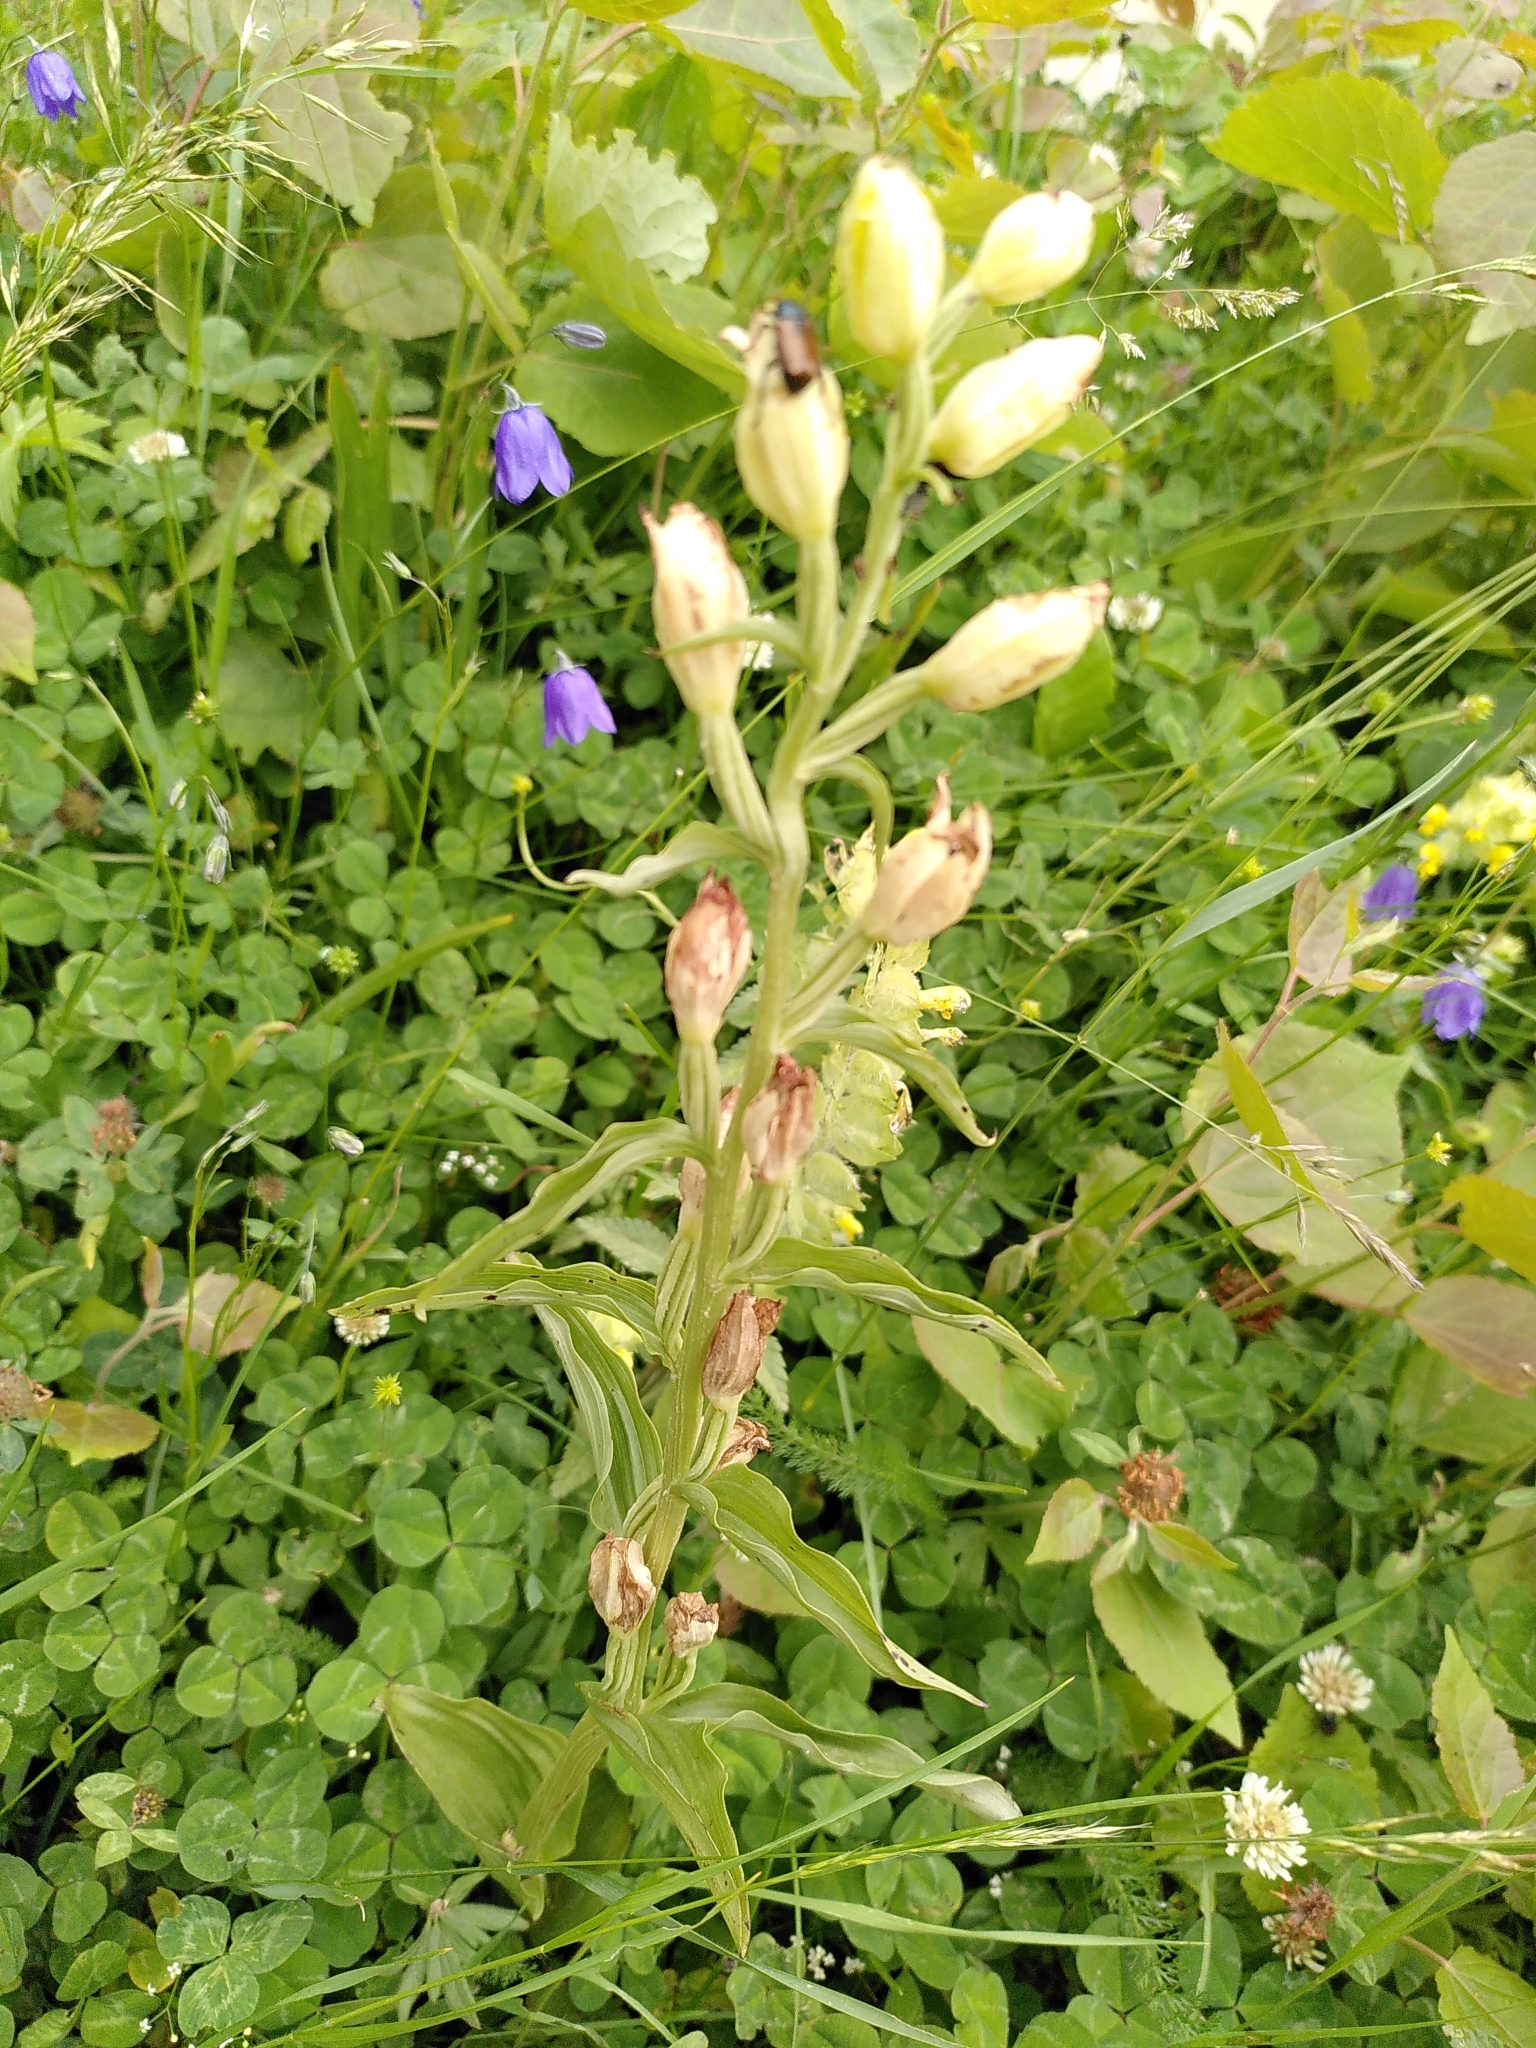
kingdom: Plantae
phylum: Tracheophyta
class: Liliopsida
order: Asparagales
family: Orchidaceae
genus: Cephalanthera
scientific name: Cephalanthera damasonium
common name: White helleborine
